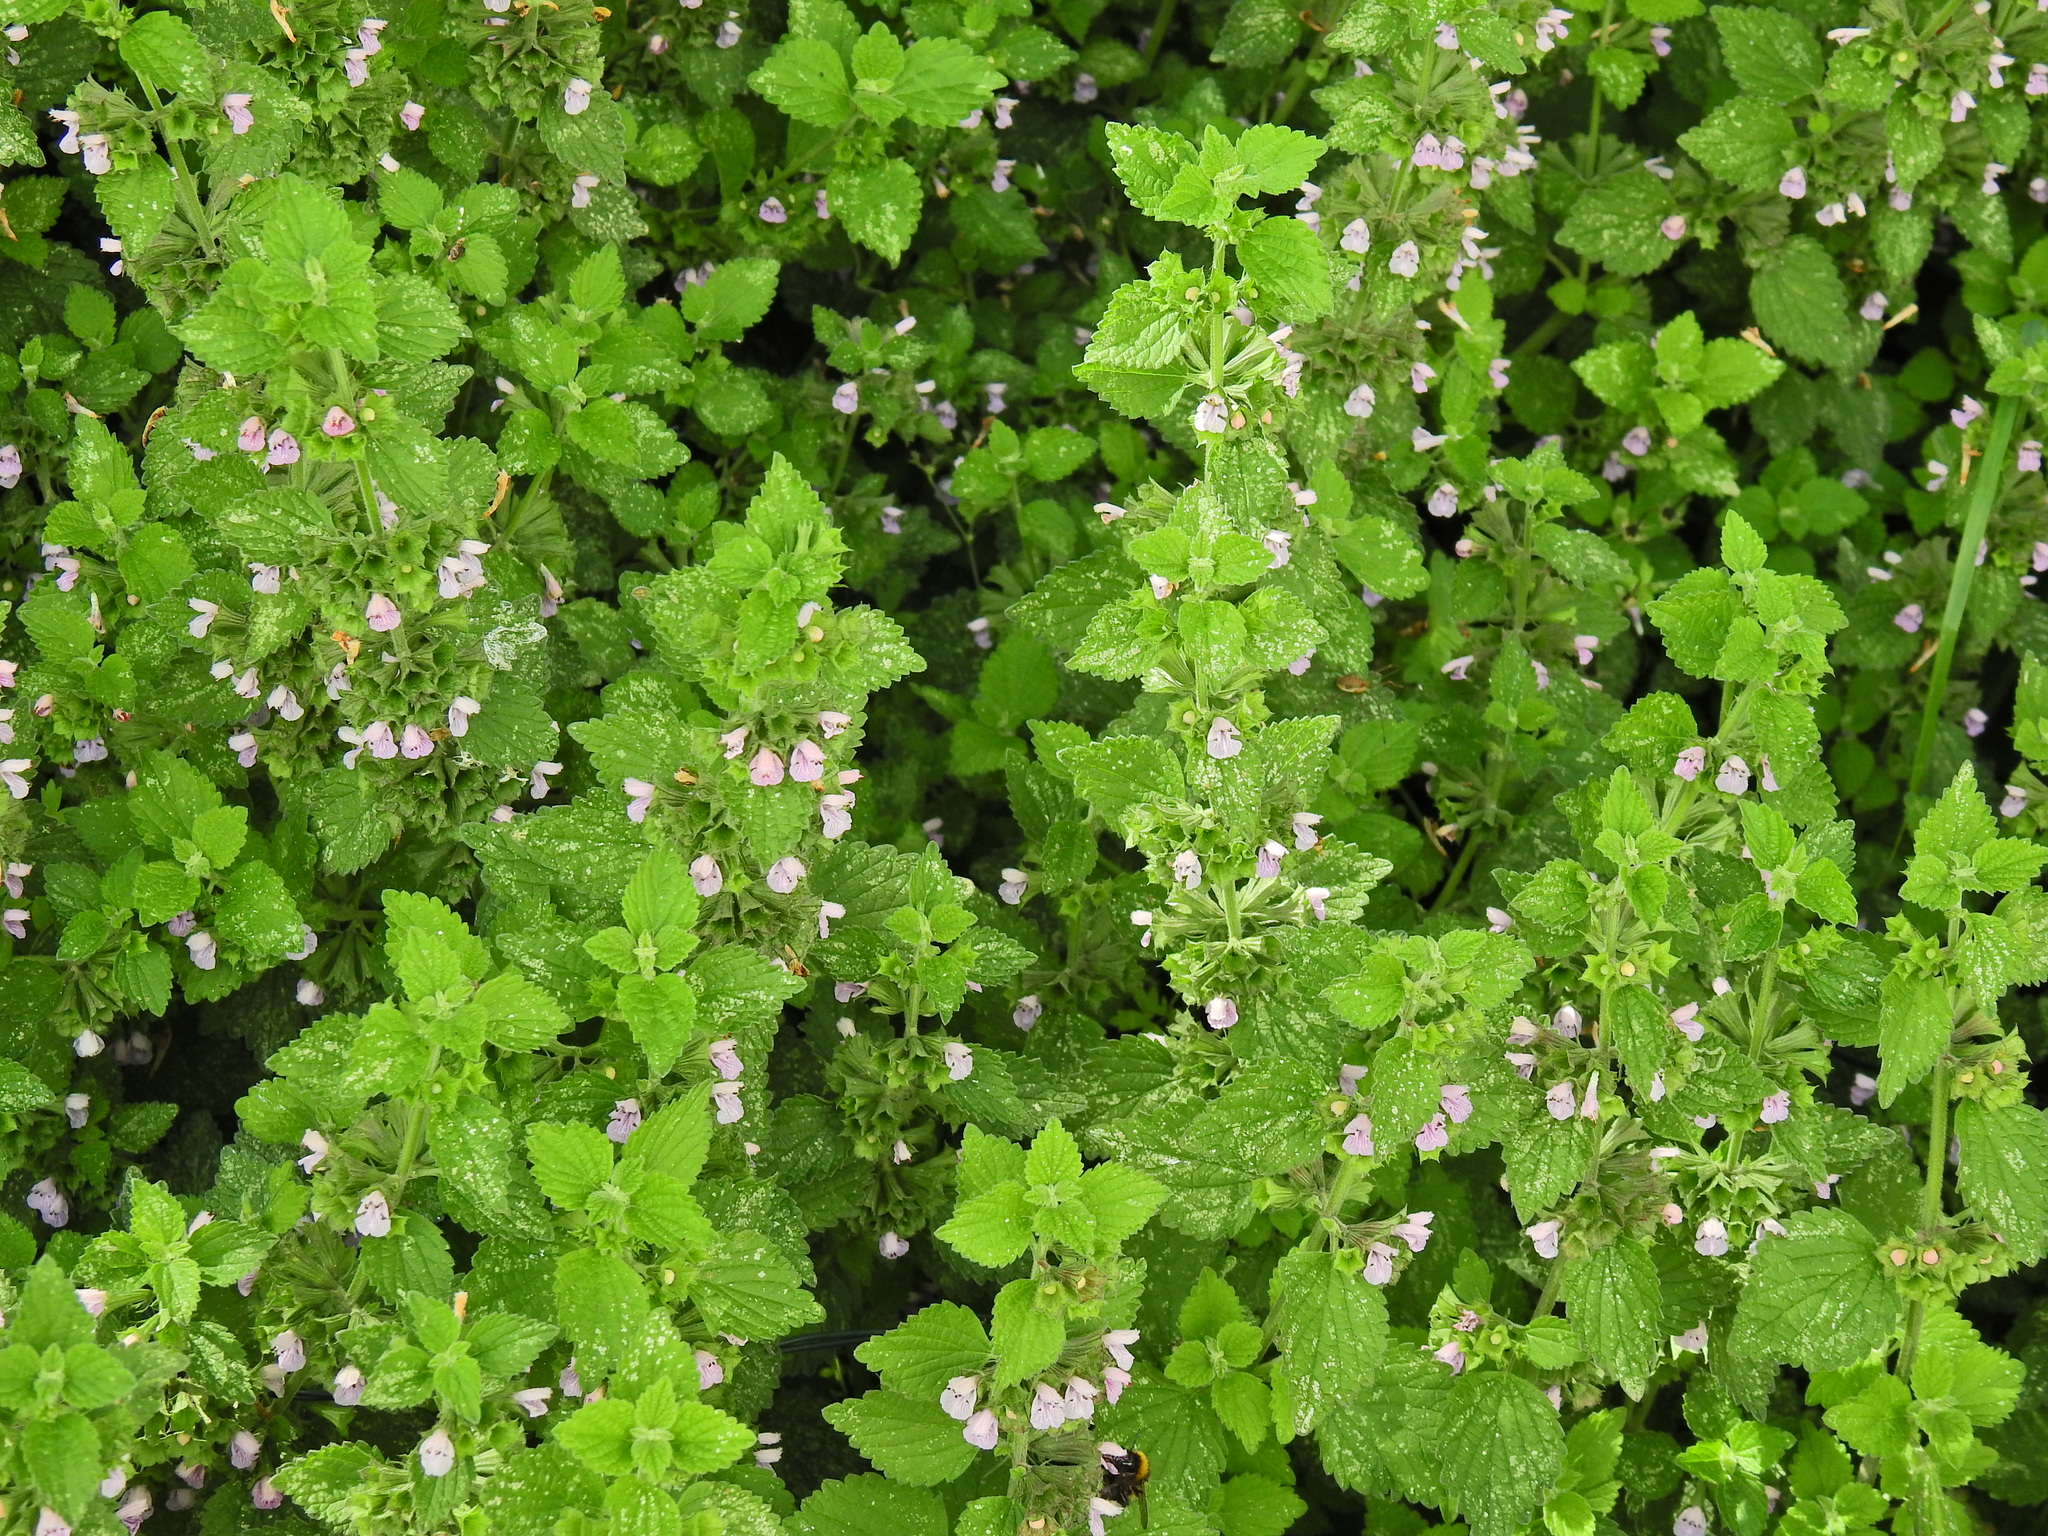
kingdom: Plantae
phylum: Tracheophyta
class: Magnoliopsida
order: Lamiales
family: Lamiaceae
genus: Ballota
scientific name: Ballota nigra
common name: Black horehound
